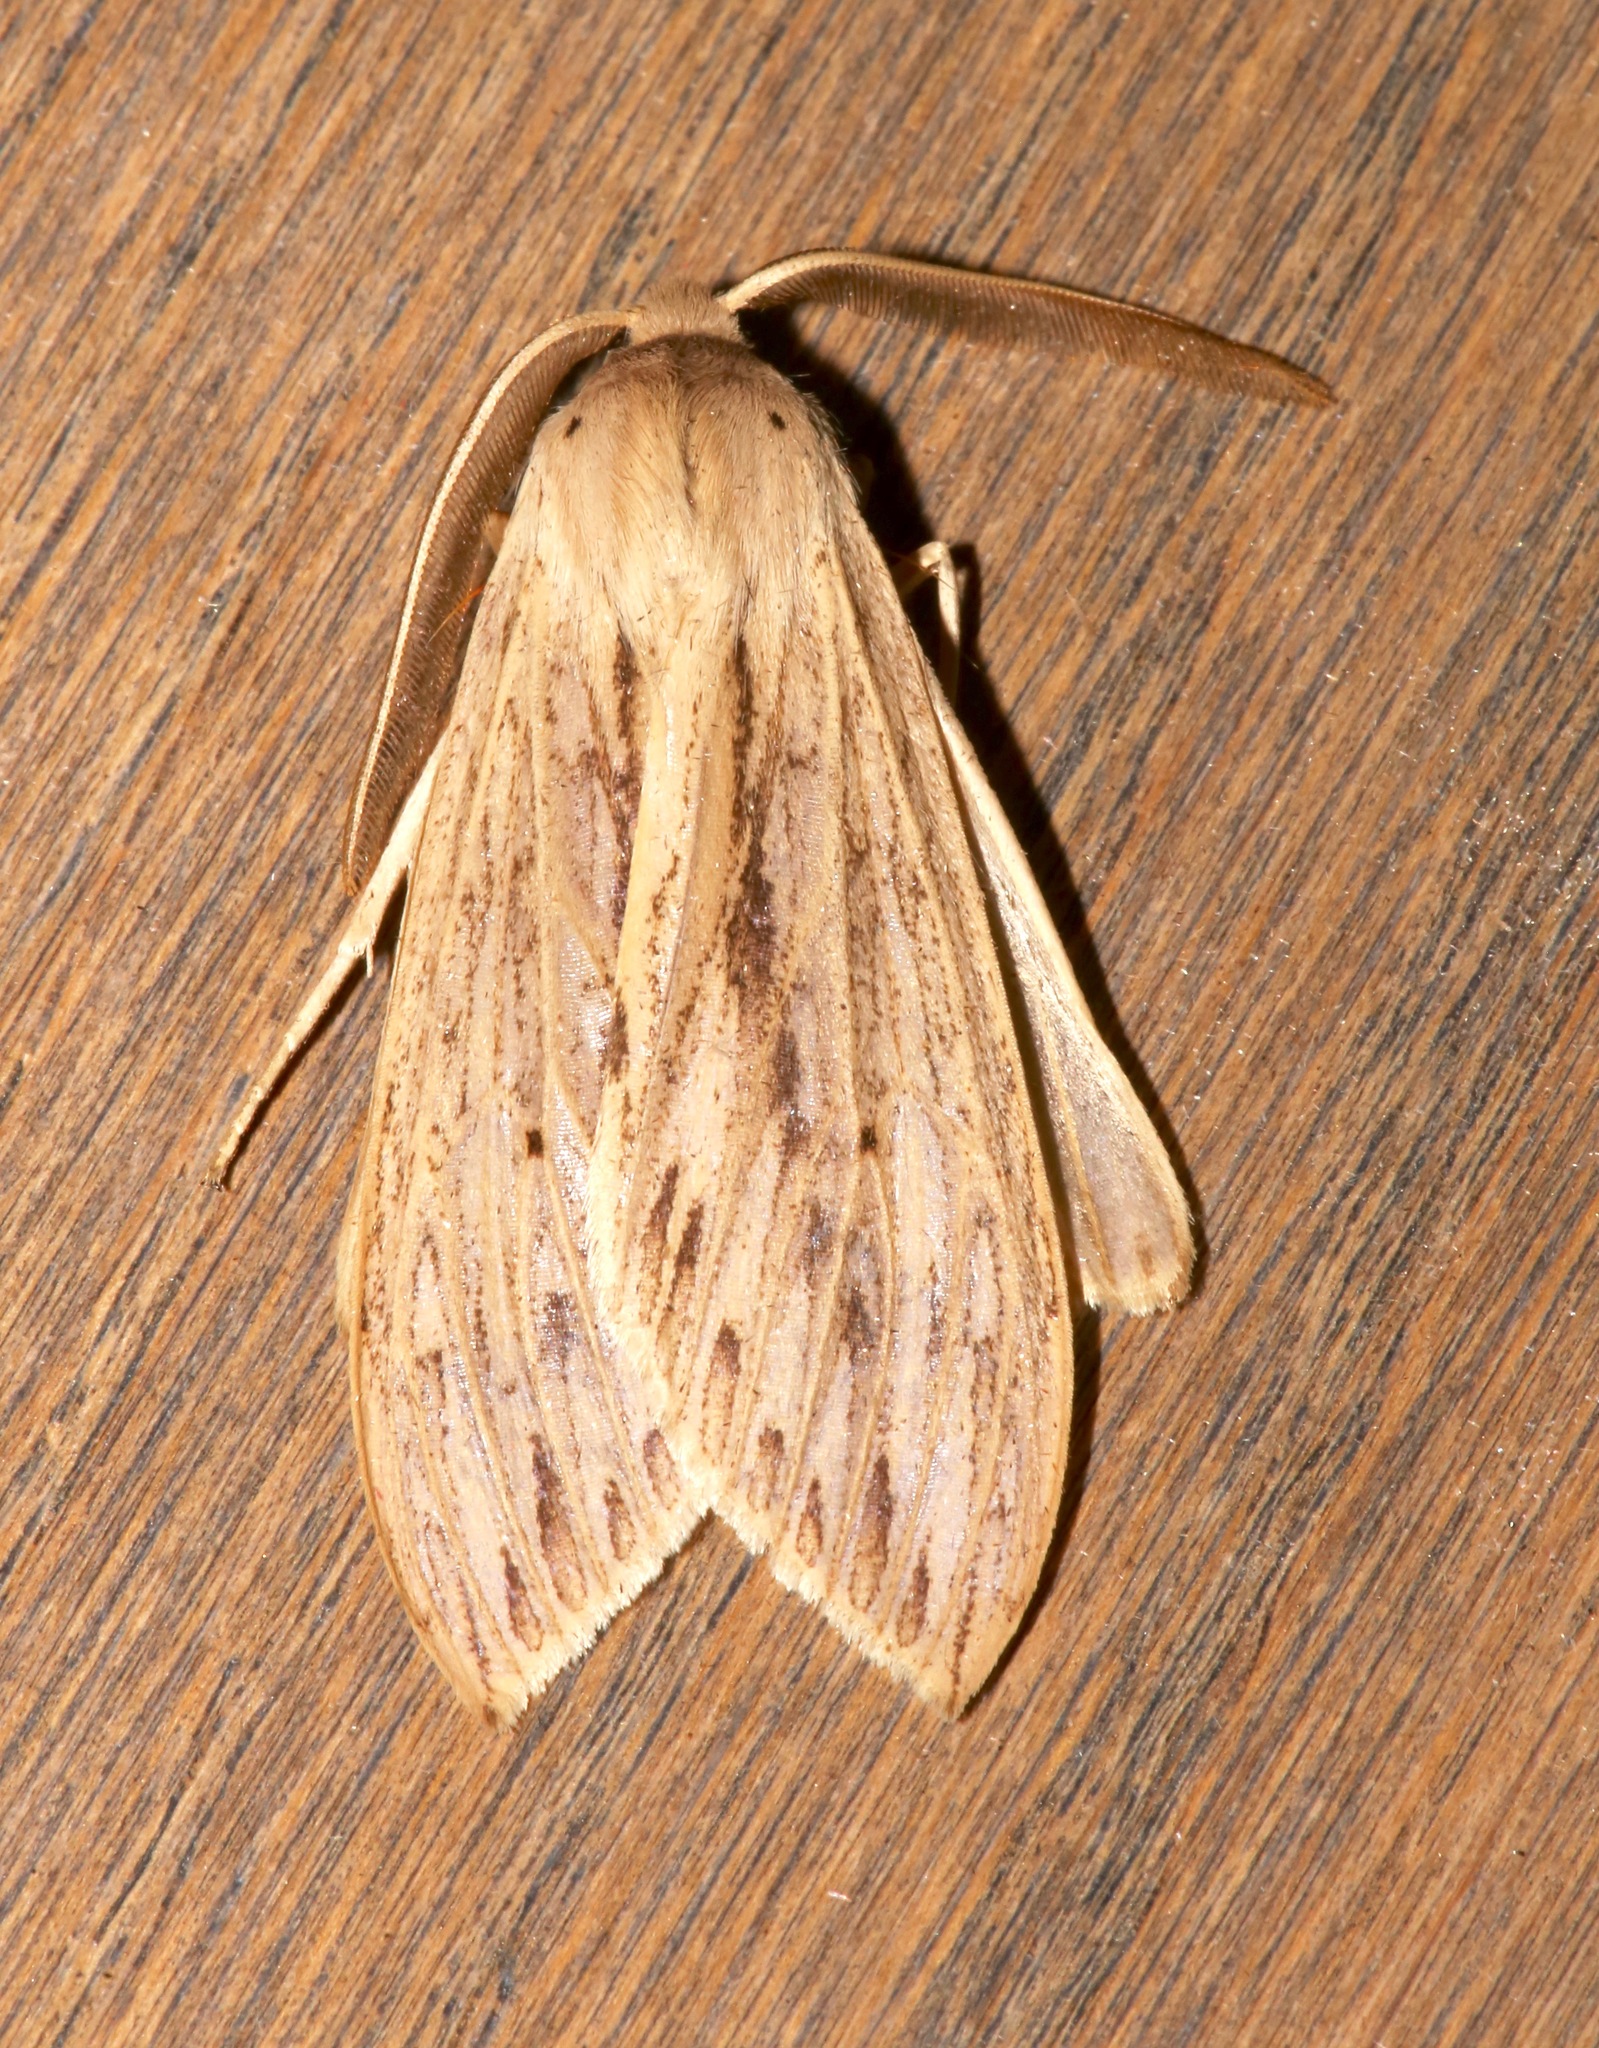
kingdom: Animalia
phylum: Arthropoda
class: Insecta
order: Lepidoptera
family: Erebidae
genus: Leucanopsis
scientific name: Leucanopsis lurida
